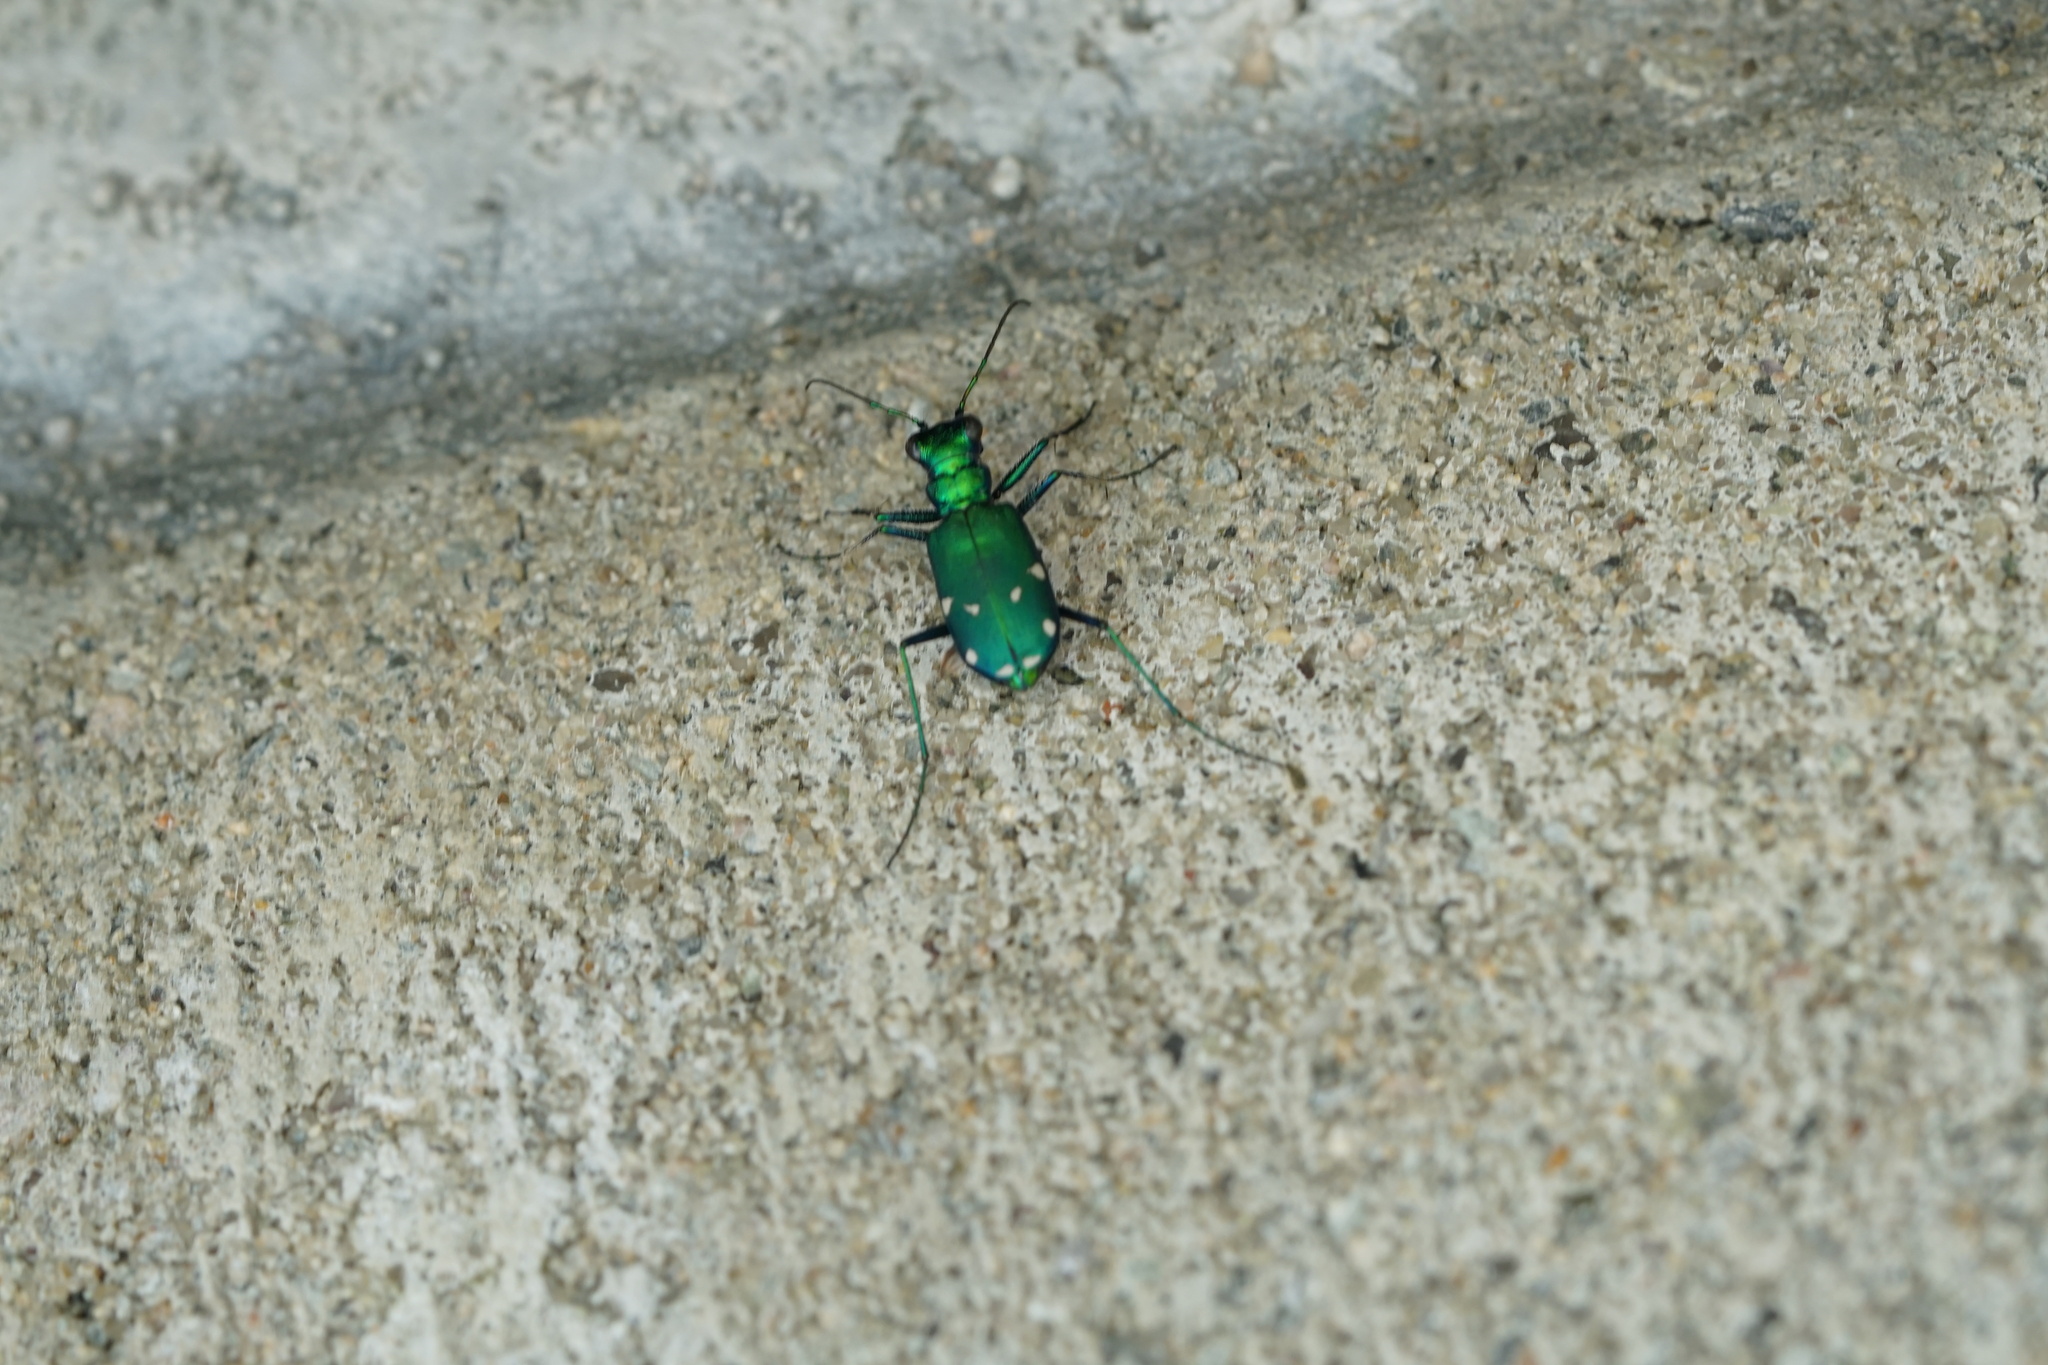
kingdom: Animalia
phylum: Arthropoda
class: Insecta
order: Coleoptera
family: Carabidae
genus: Cicindela
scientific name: Cicindela sexguttata
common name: Six-spotted tiger beetle
